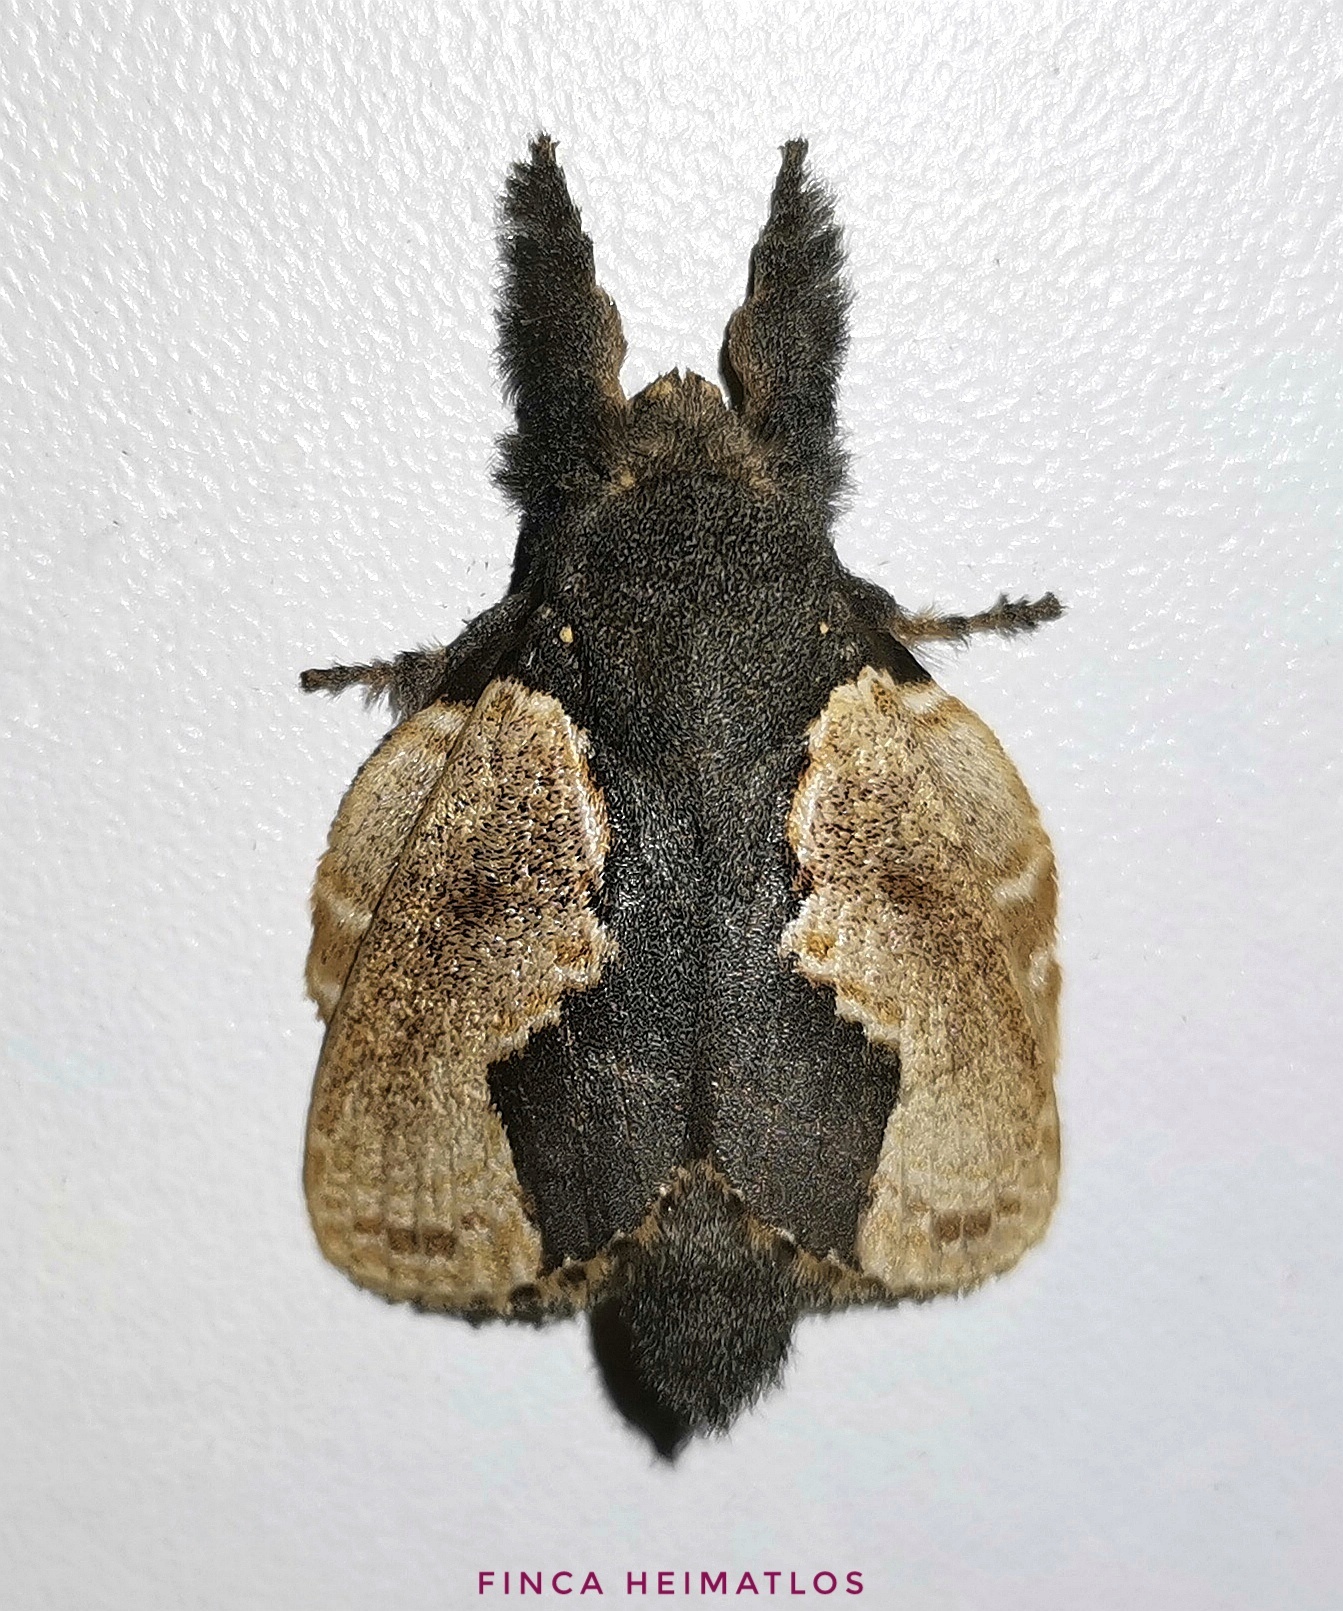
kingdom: Animalia
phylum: Arthropoda
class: Insecta
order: Lepidoptera
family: Lasiocampidae
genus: Euglyphis
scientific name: Euglyphis marna
